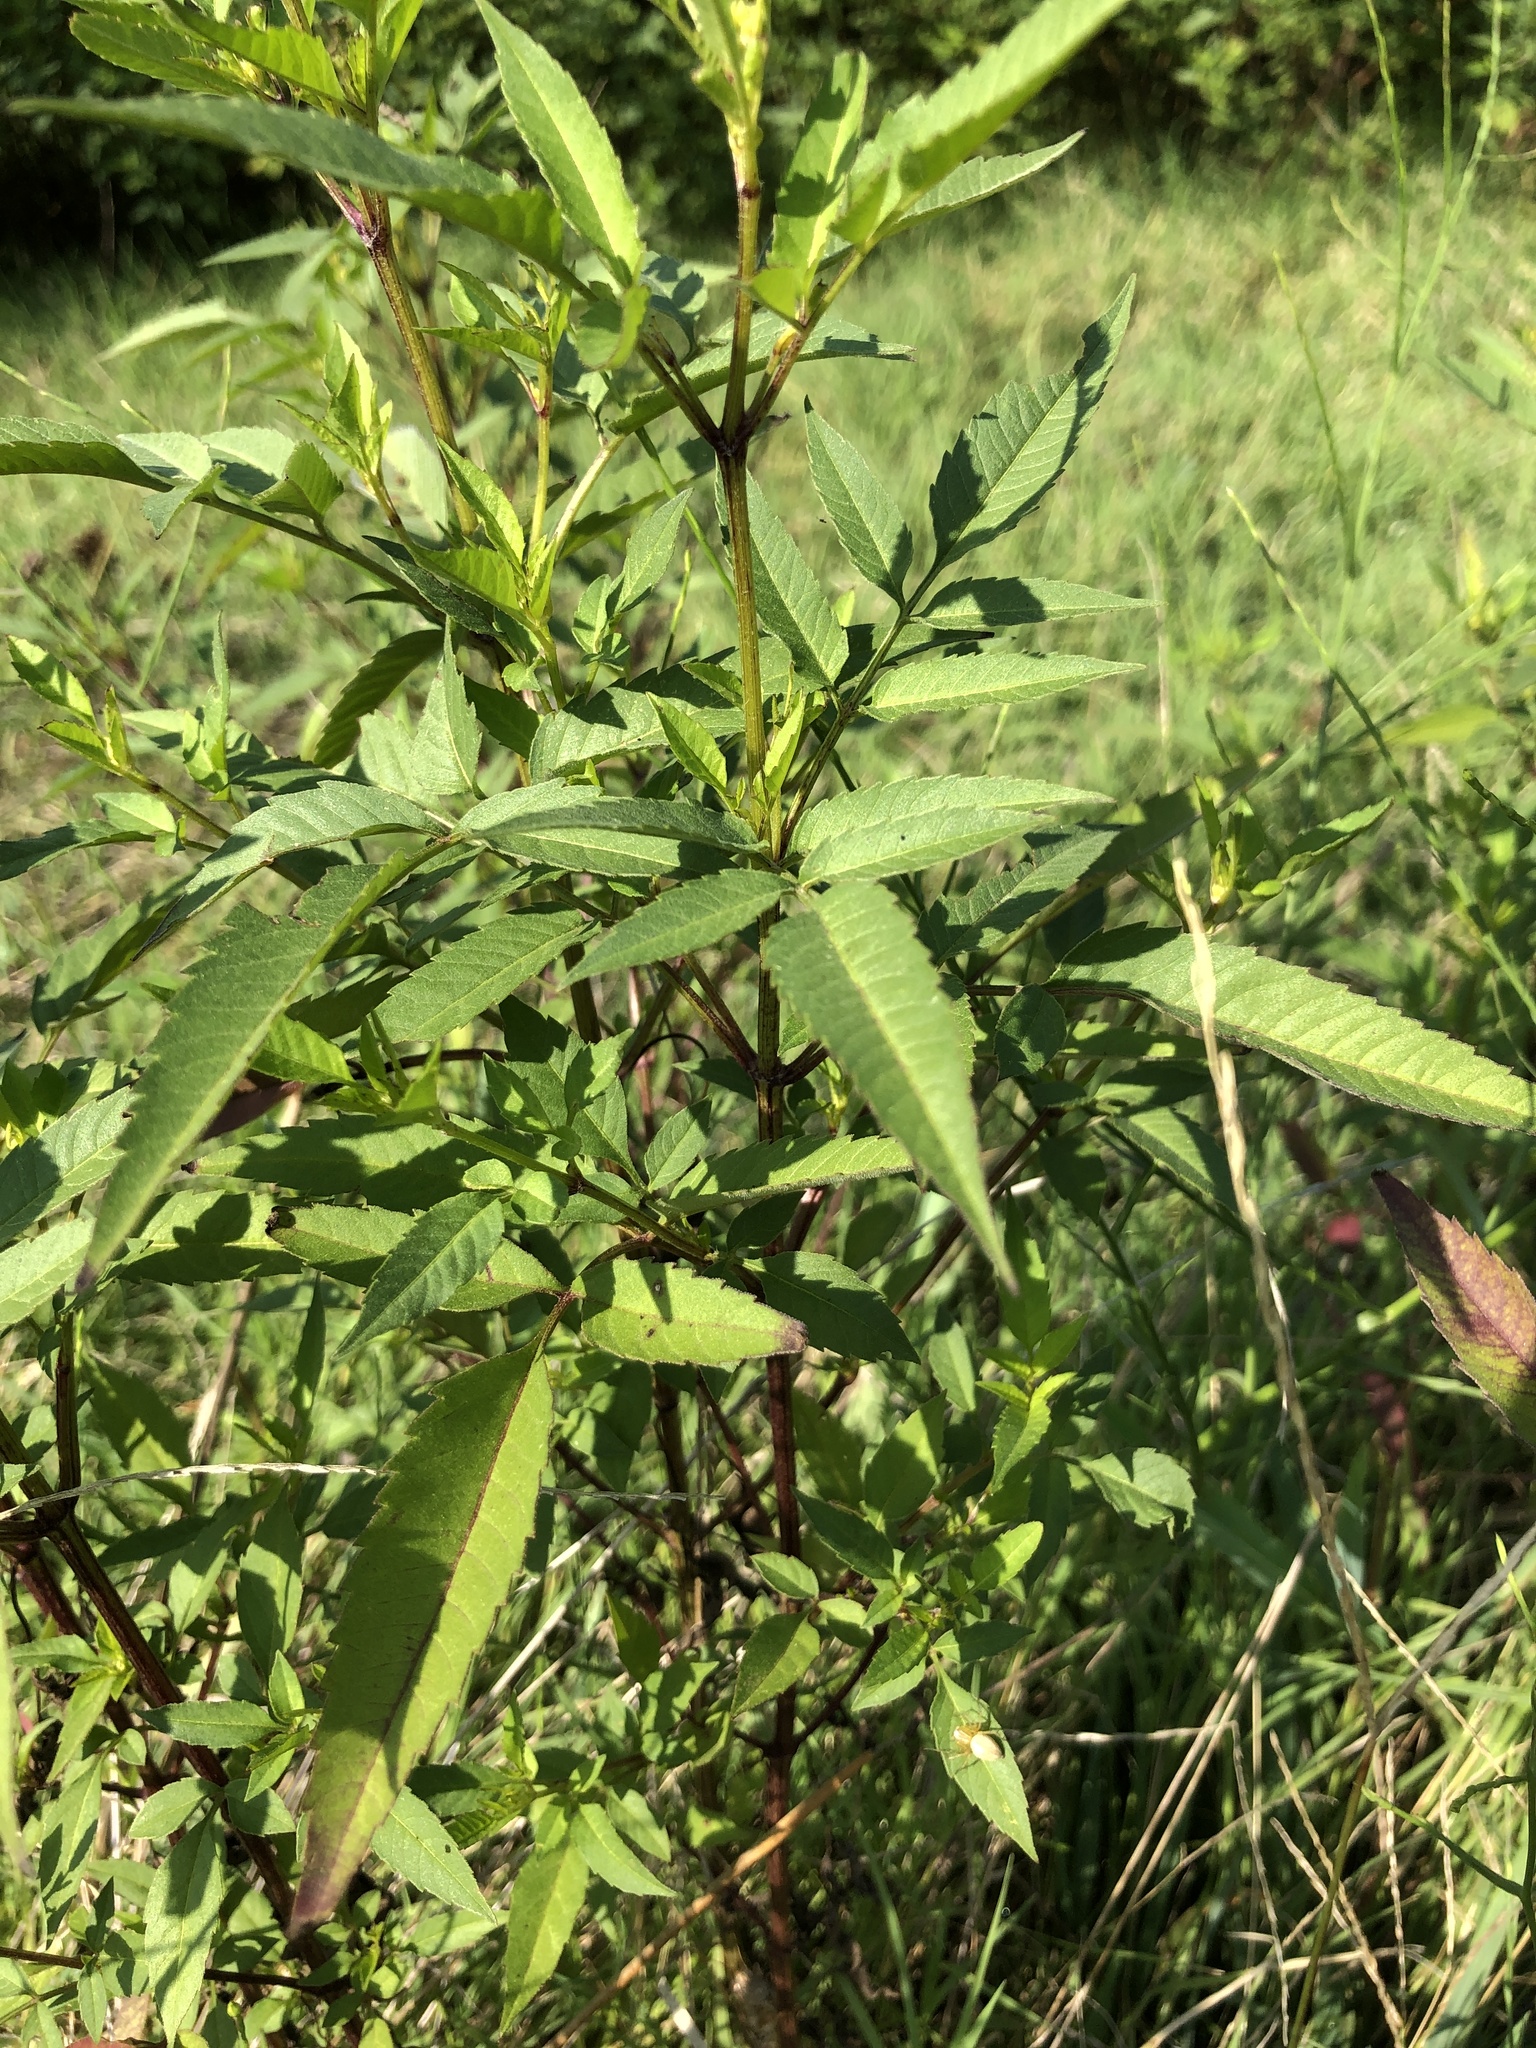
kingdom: Plantae
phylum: Tracheophyta
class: Magnoliopsida
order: Asterales
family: Asteraceae
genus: Bidens
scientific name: Bidens frondosa
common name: Beggarticks
